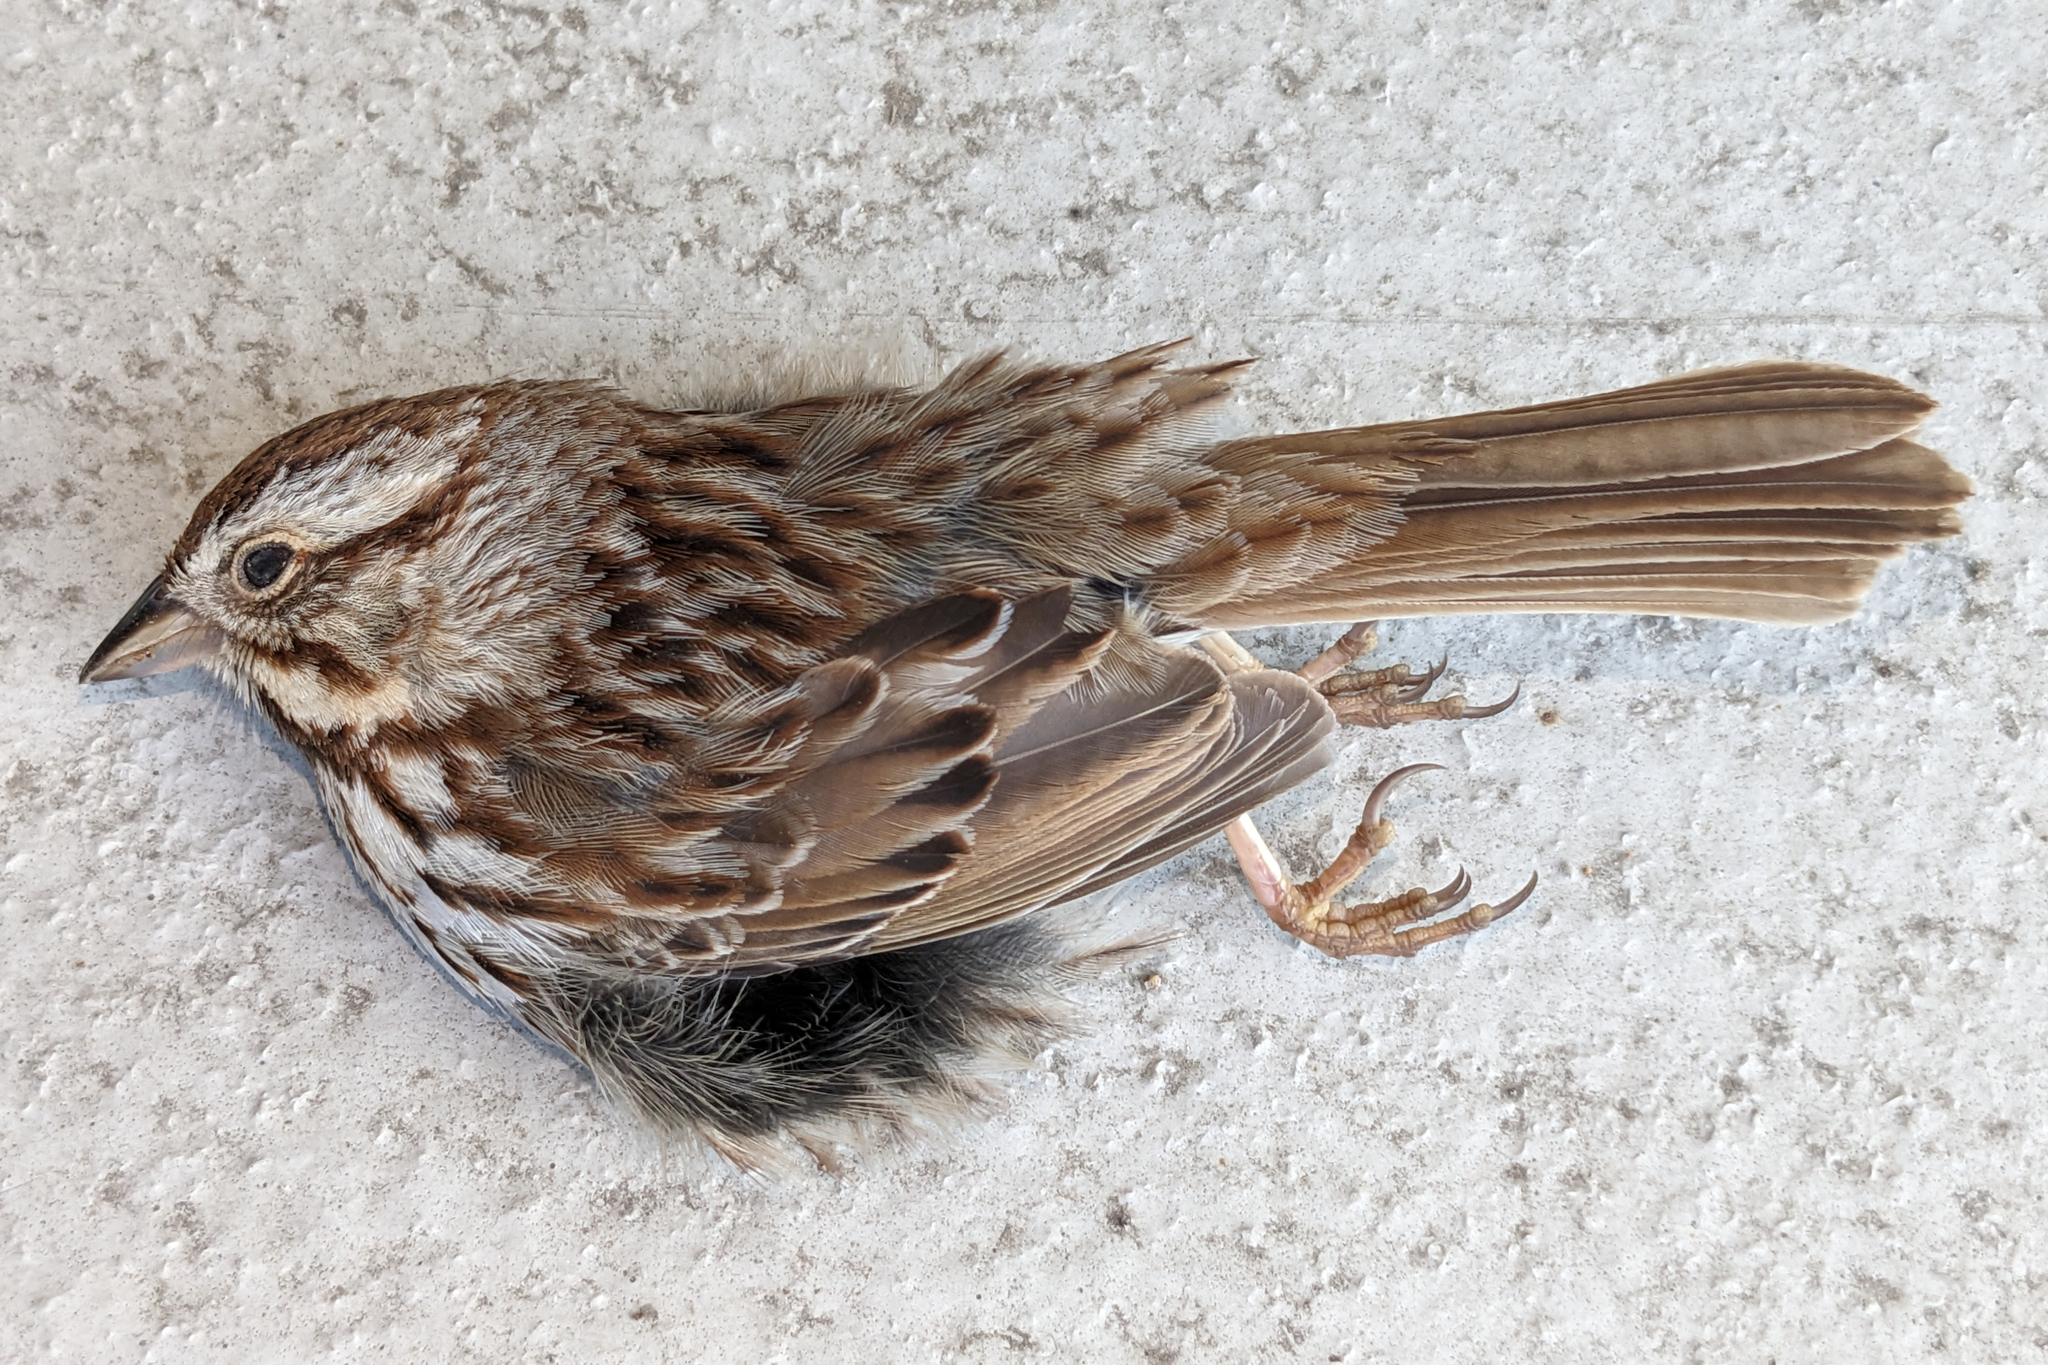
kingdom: Animalia
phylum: Chordata
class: Aves
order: Passeriformes
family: Passerellidae
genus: Melospiza
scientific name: Melospiza melodia
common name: Song sparrow
